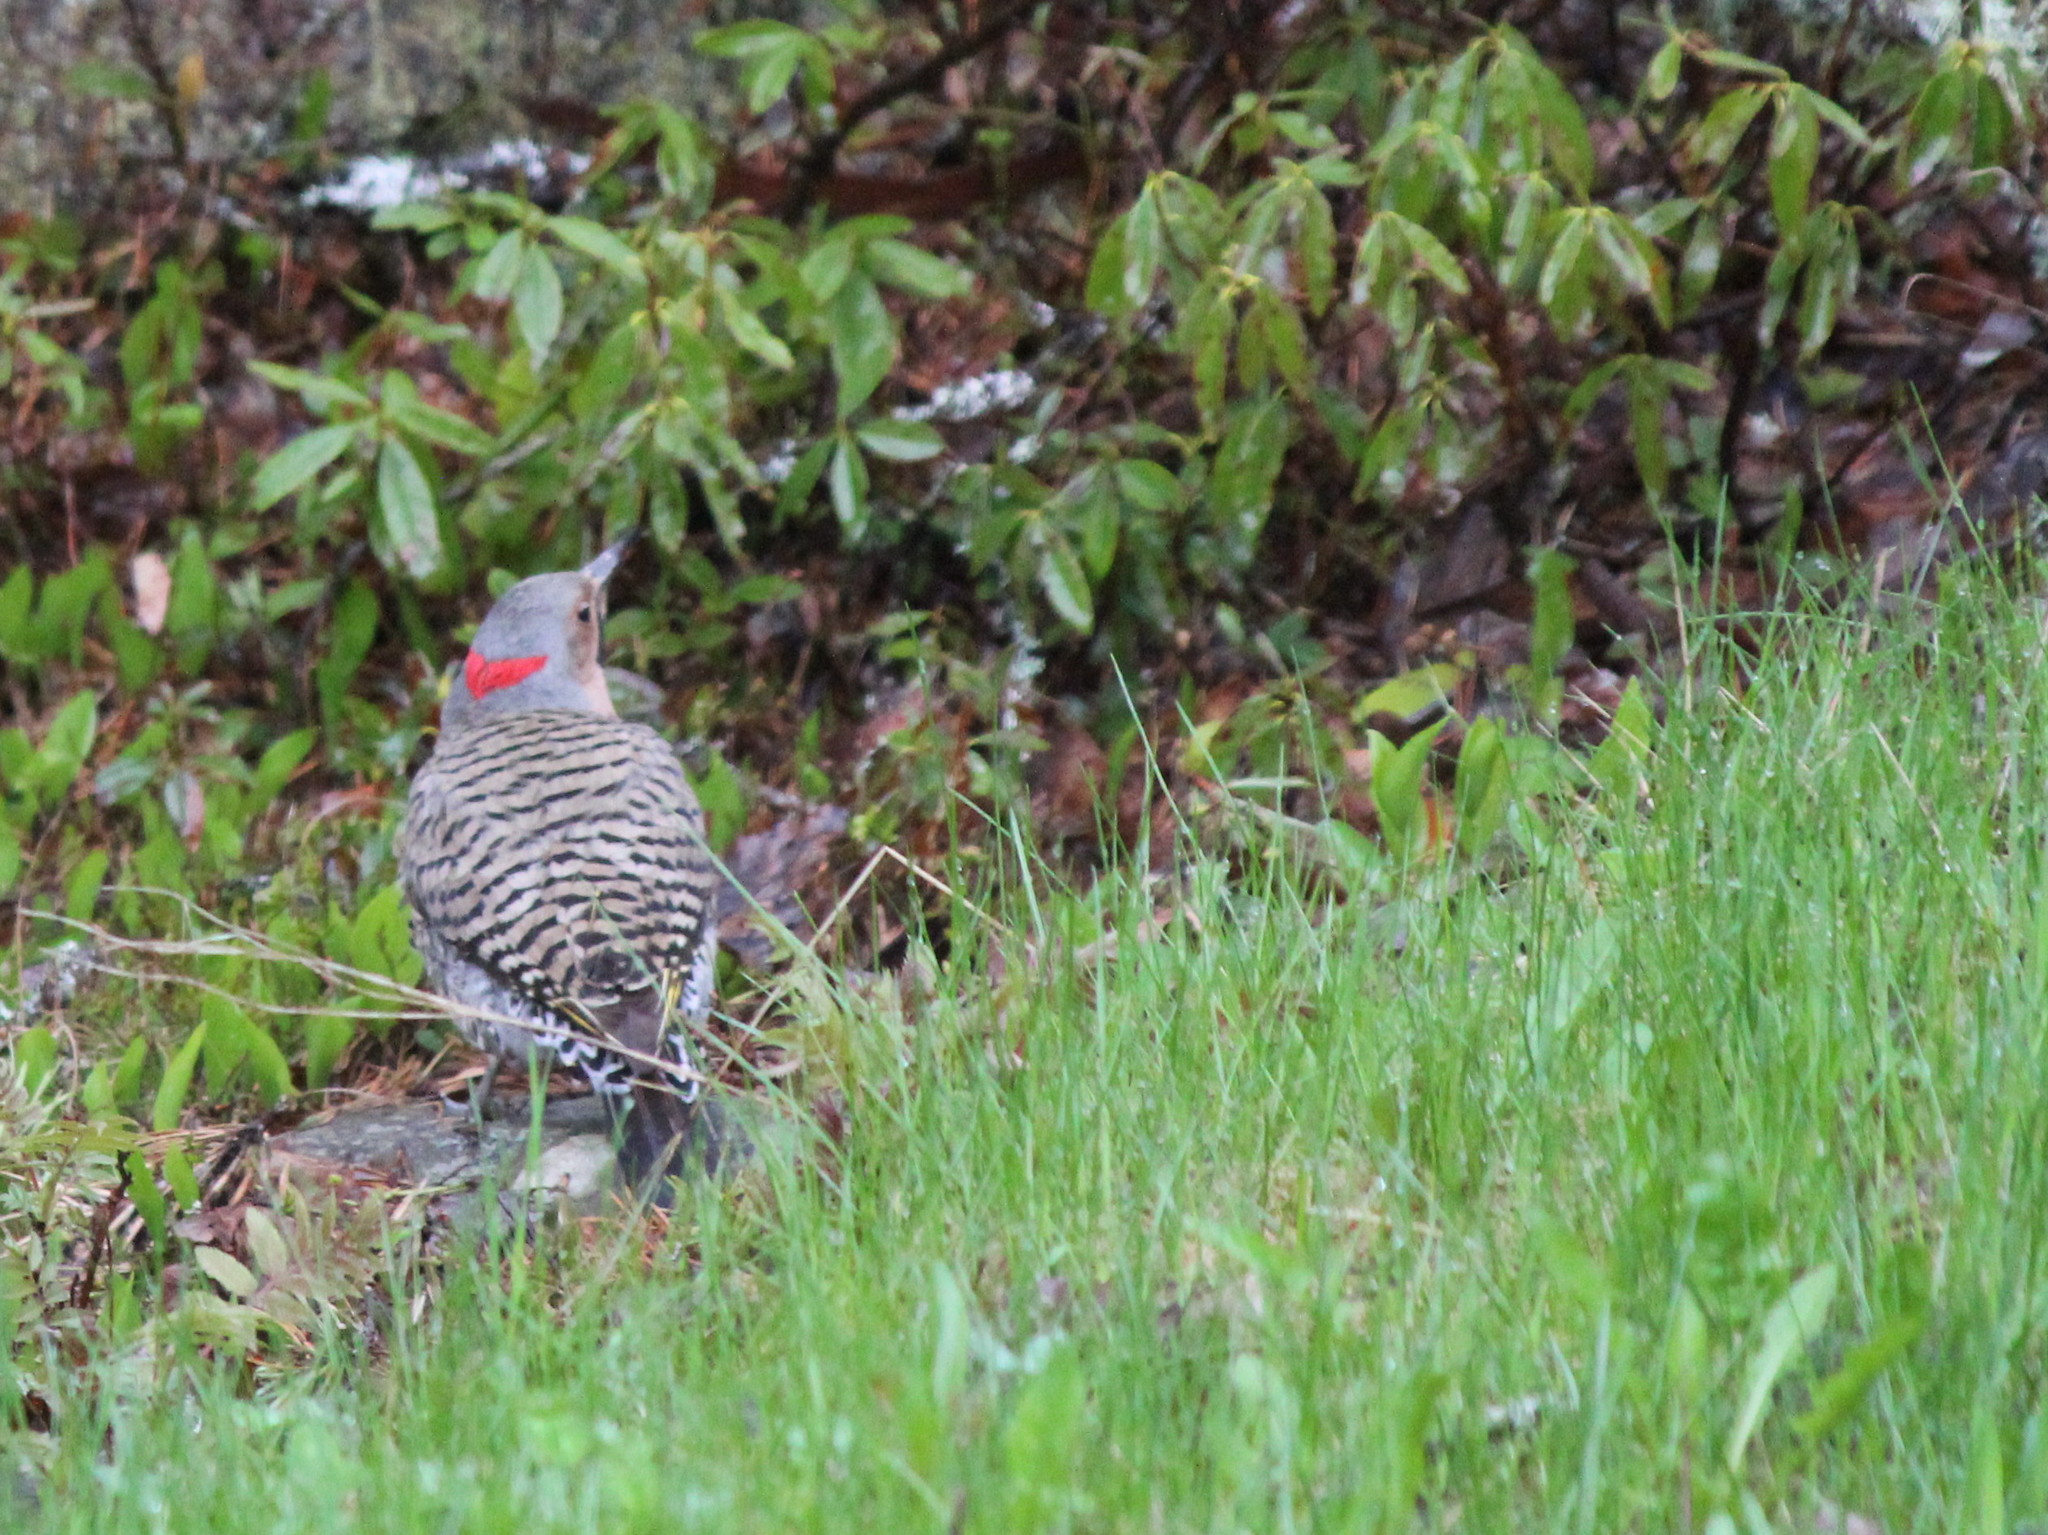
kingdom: Animalia
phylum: Chordata
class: Aves
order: Piciformes
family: Picidae
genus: Colaptes
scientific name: Colaptes auratus
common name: Northern flicker
